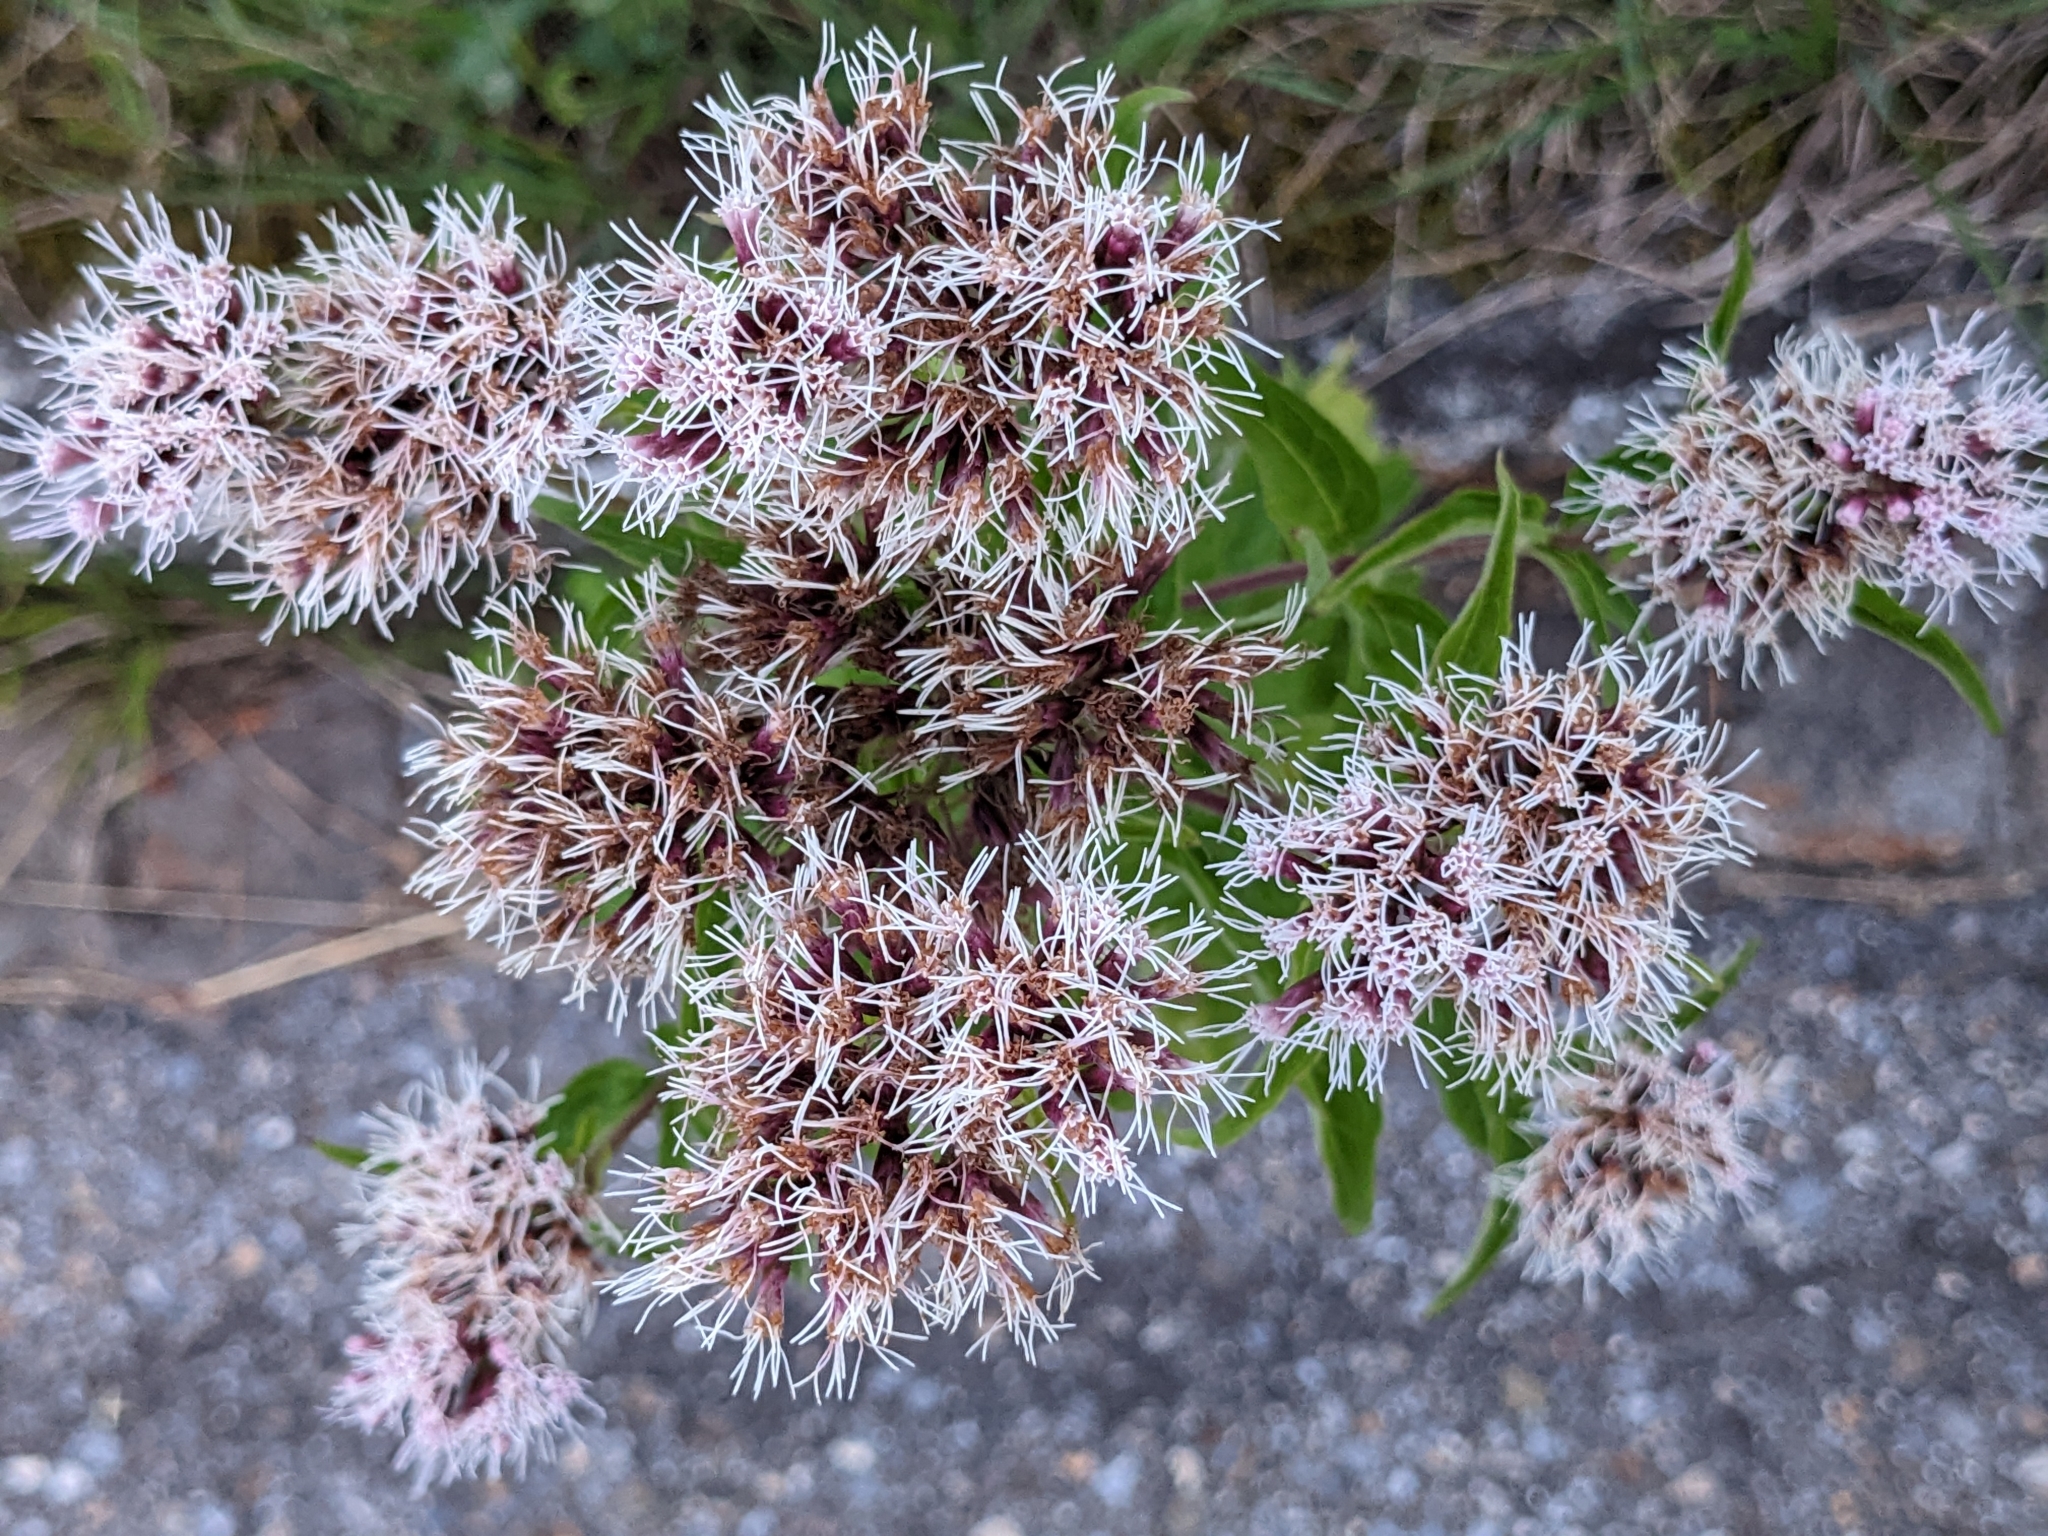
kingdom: Plantae
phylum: Tracheophyta
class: Magnoliopsida
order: Asterales
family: Asteraceae
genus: Eupatorium
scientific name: Eupatorium cannabinum
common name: Hemp-agrimony
